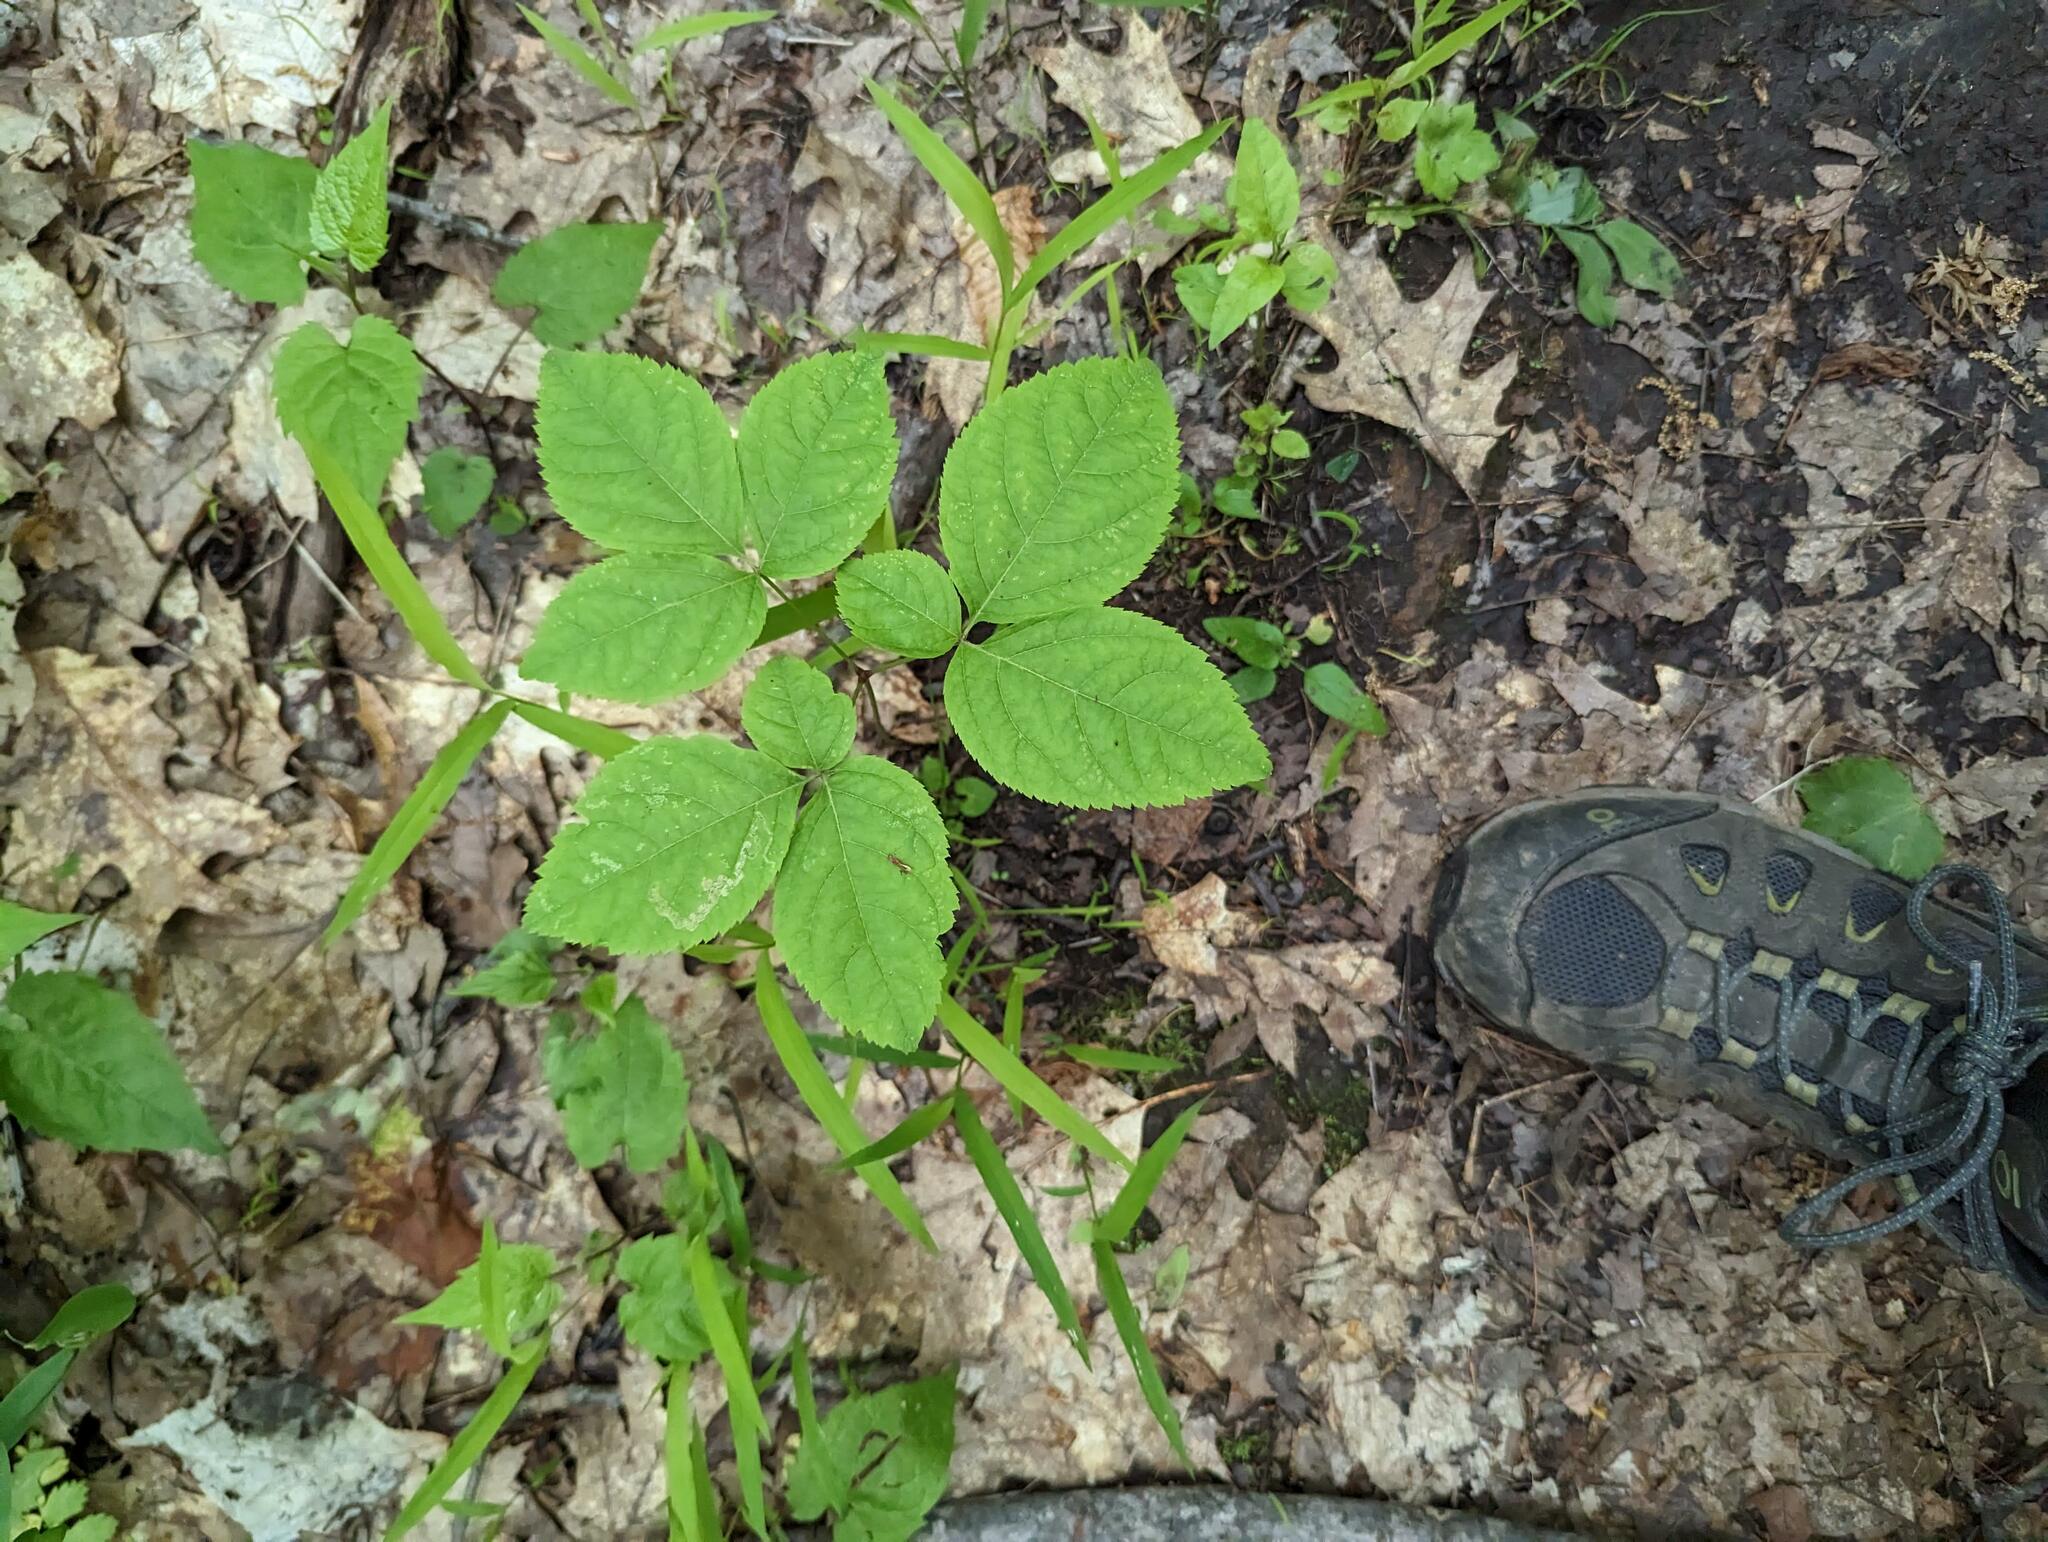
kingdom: Plantae
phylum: Tracheophyta
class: Magnoliopsida
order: Apiales
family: Araliaceae
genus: Aralia
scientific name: Aralia nudicaulis
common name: Wild sarsaparilla
